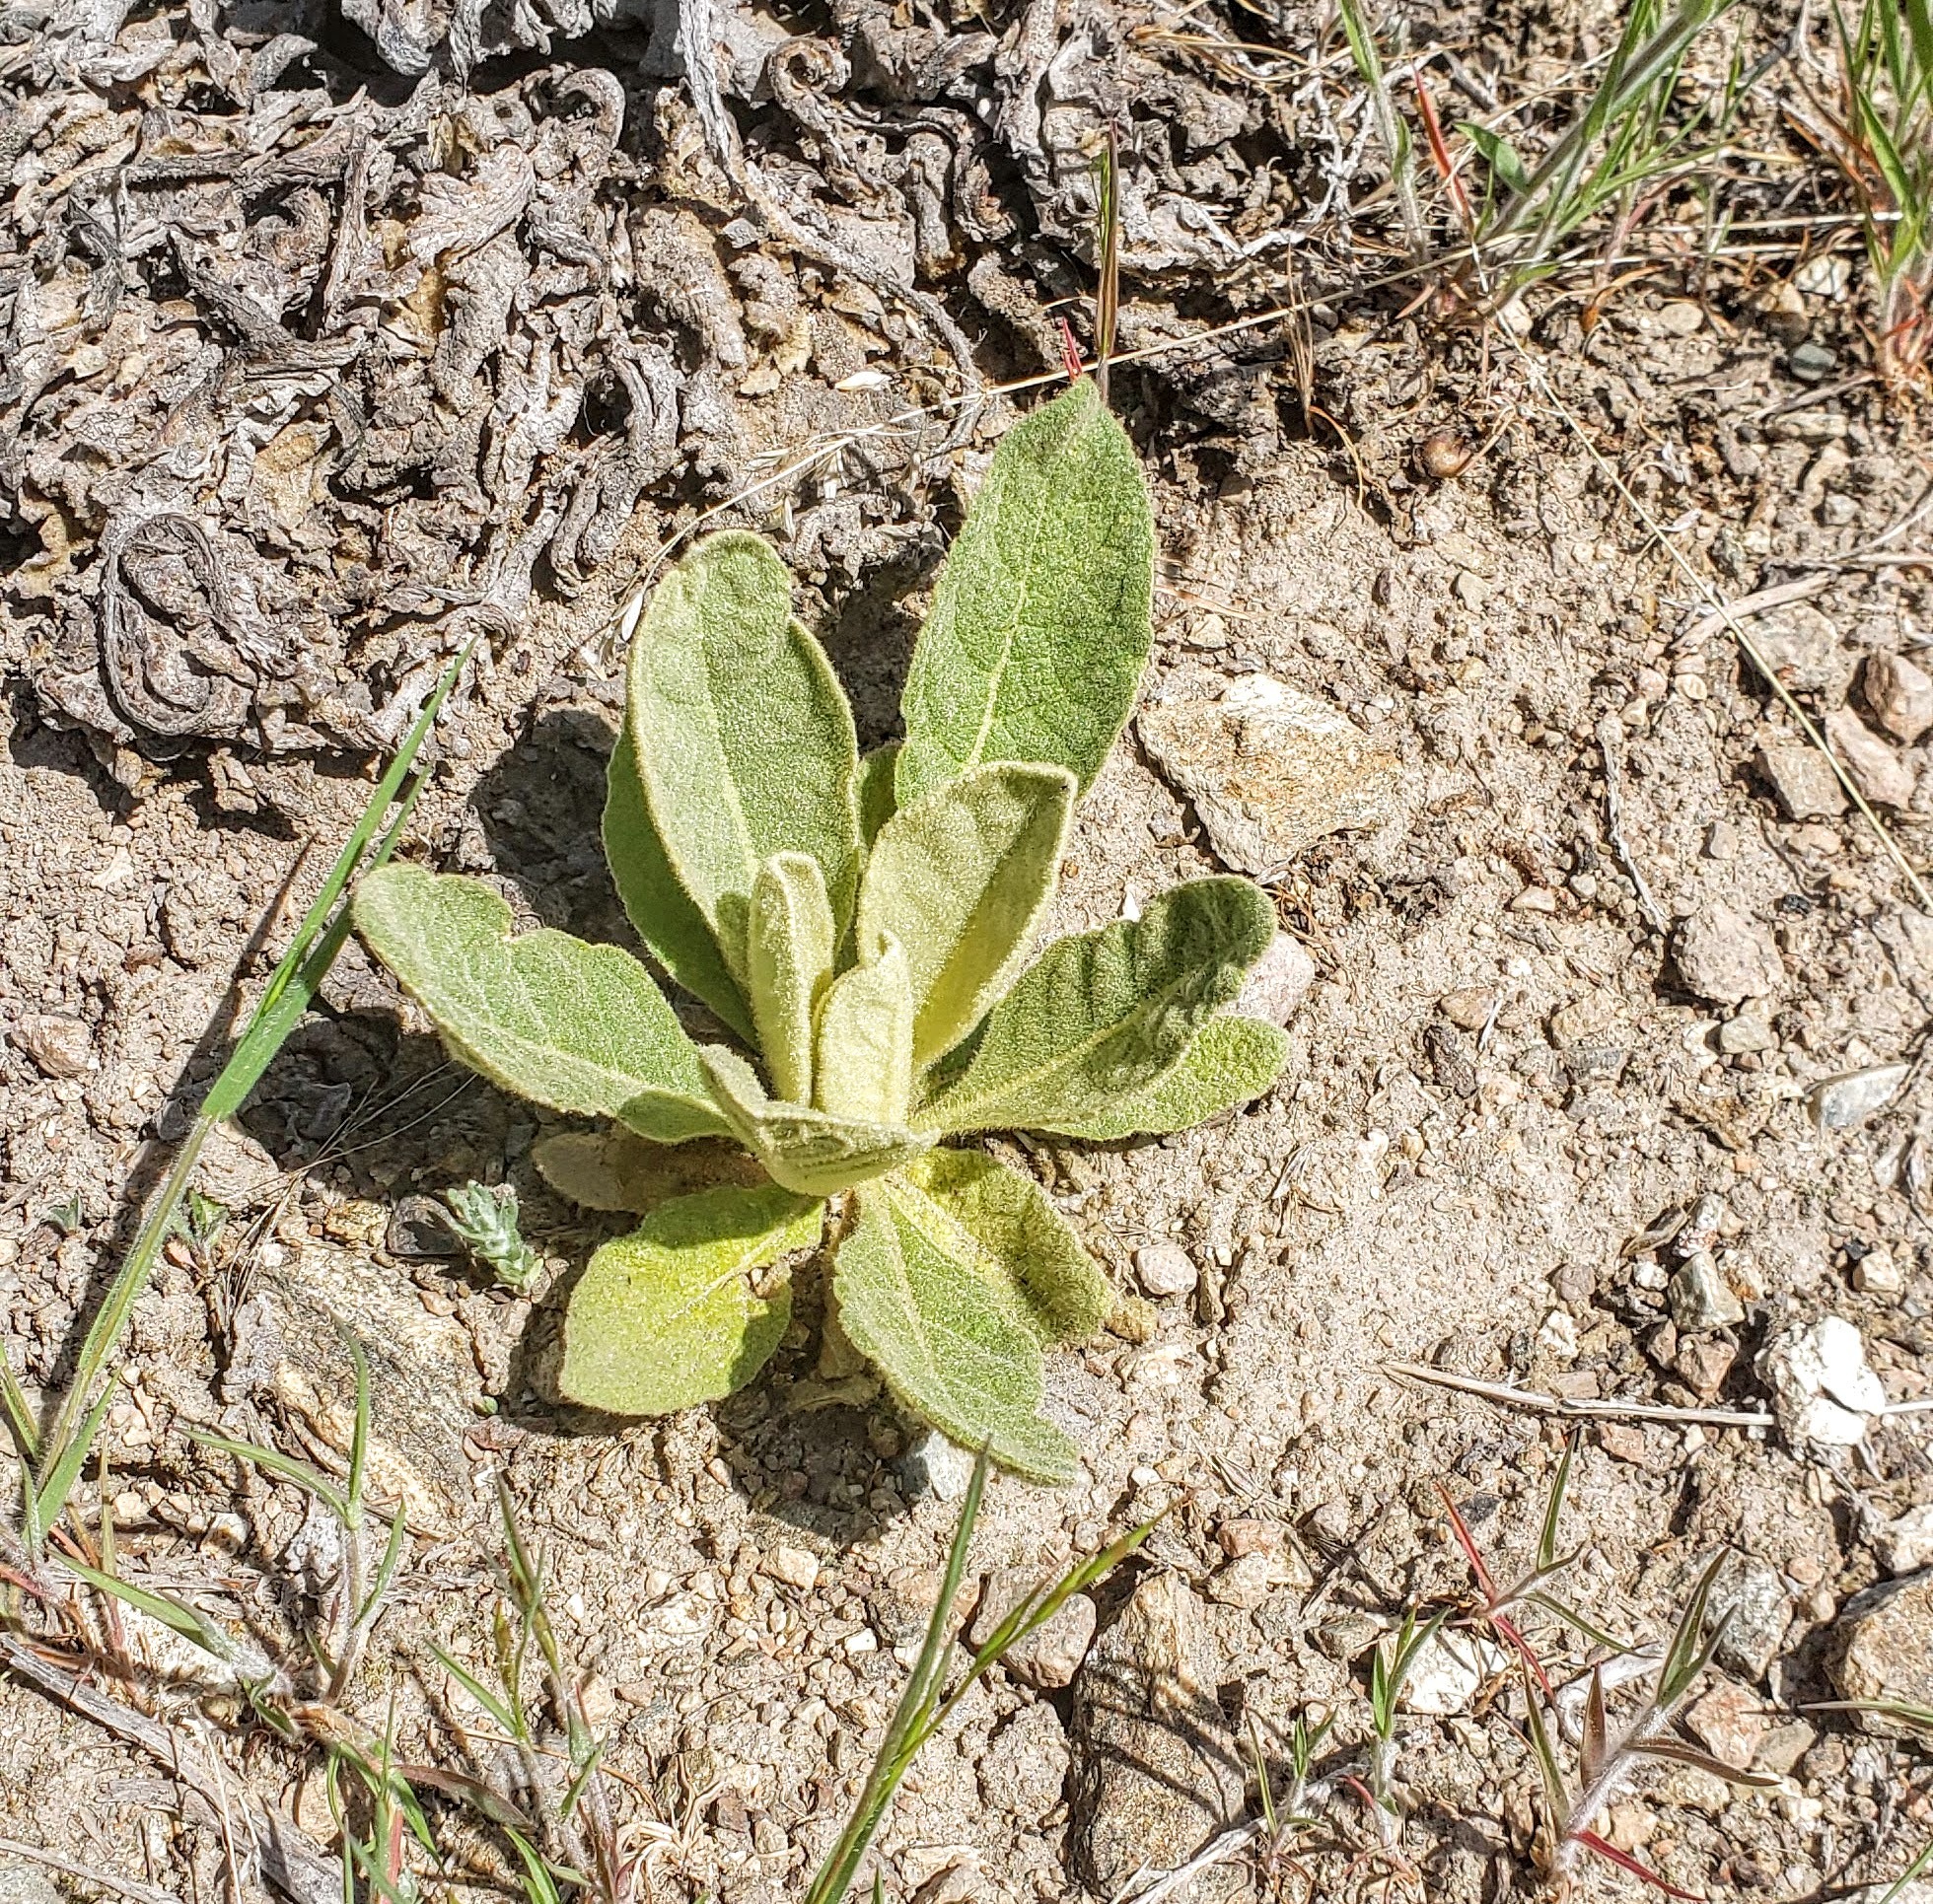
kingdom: Plantae
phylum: Tracheophyta
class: Magnoliopsida
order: Lamiales
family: Scrophulariaceae
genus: Verbascum
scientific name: Verbascum thapsus
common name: Common mullein
